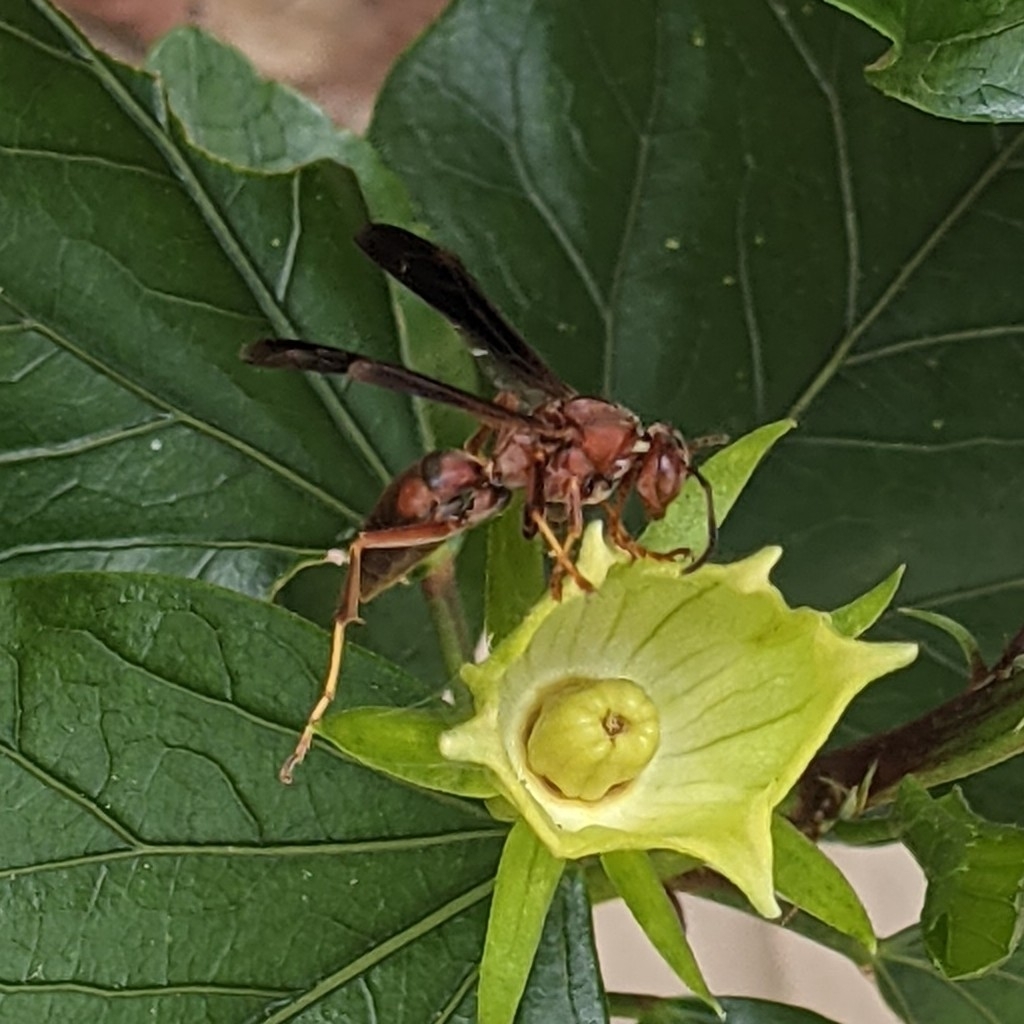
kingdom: Animalia
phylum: Arthropoda
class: Insecta
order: Hymenoptera
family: Vespidae
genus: Fuscopolistes
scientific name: Fuscopolistes
